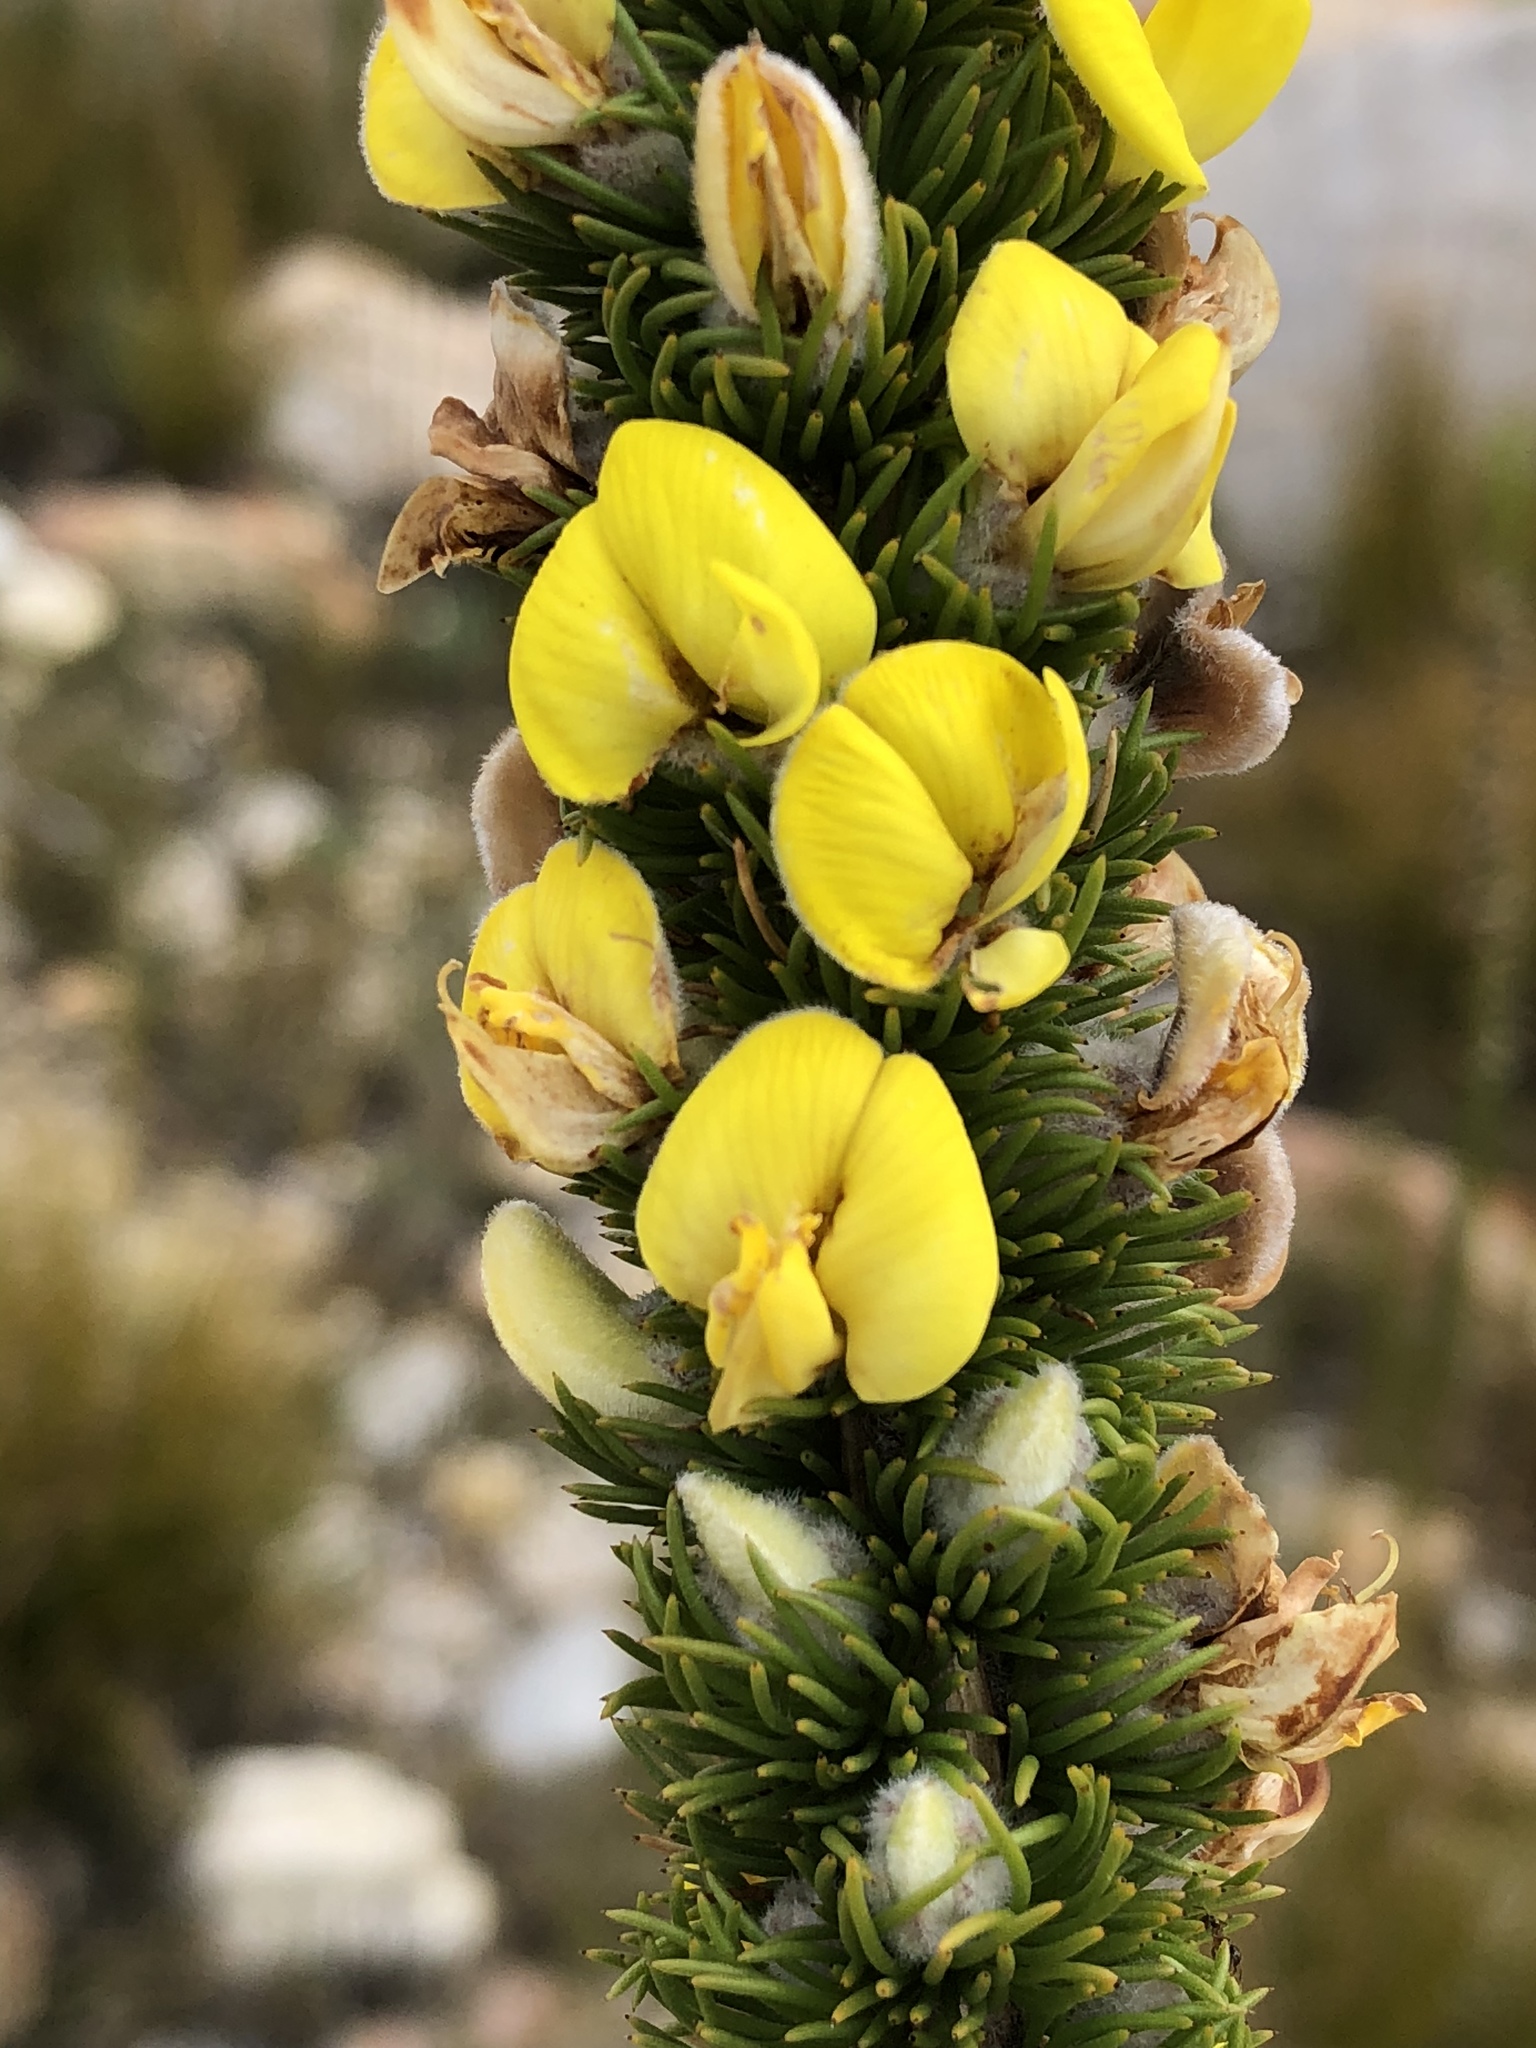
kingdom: Plantae
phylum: Tracheophyta
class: Magnoliopsida
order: Fabales
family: Fabaceae
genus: Aspalathus
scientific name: Aspalathus verbasciformis
